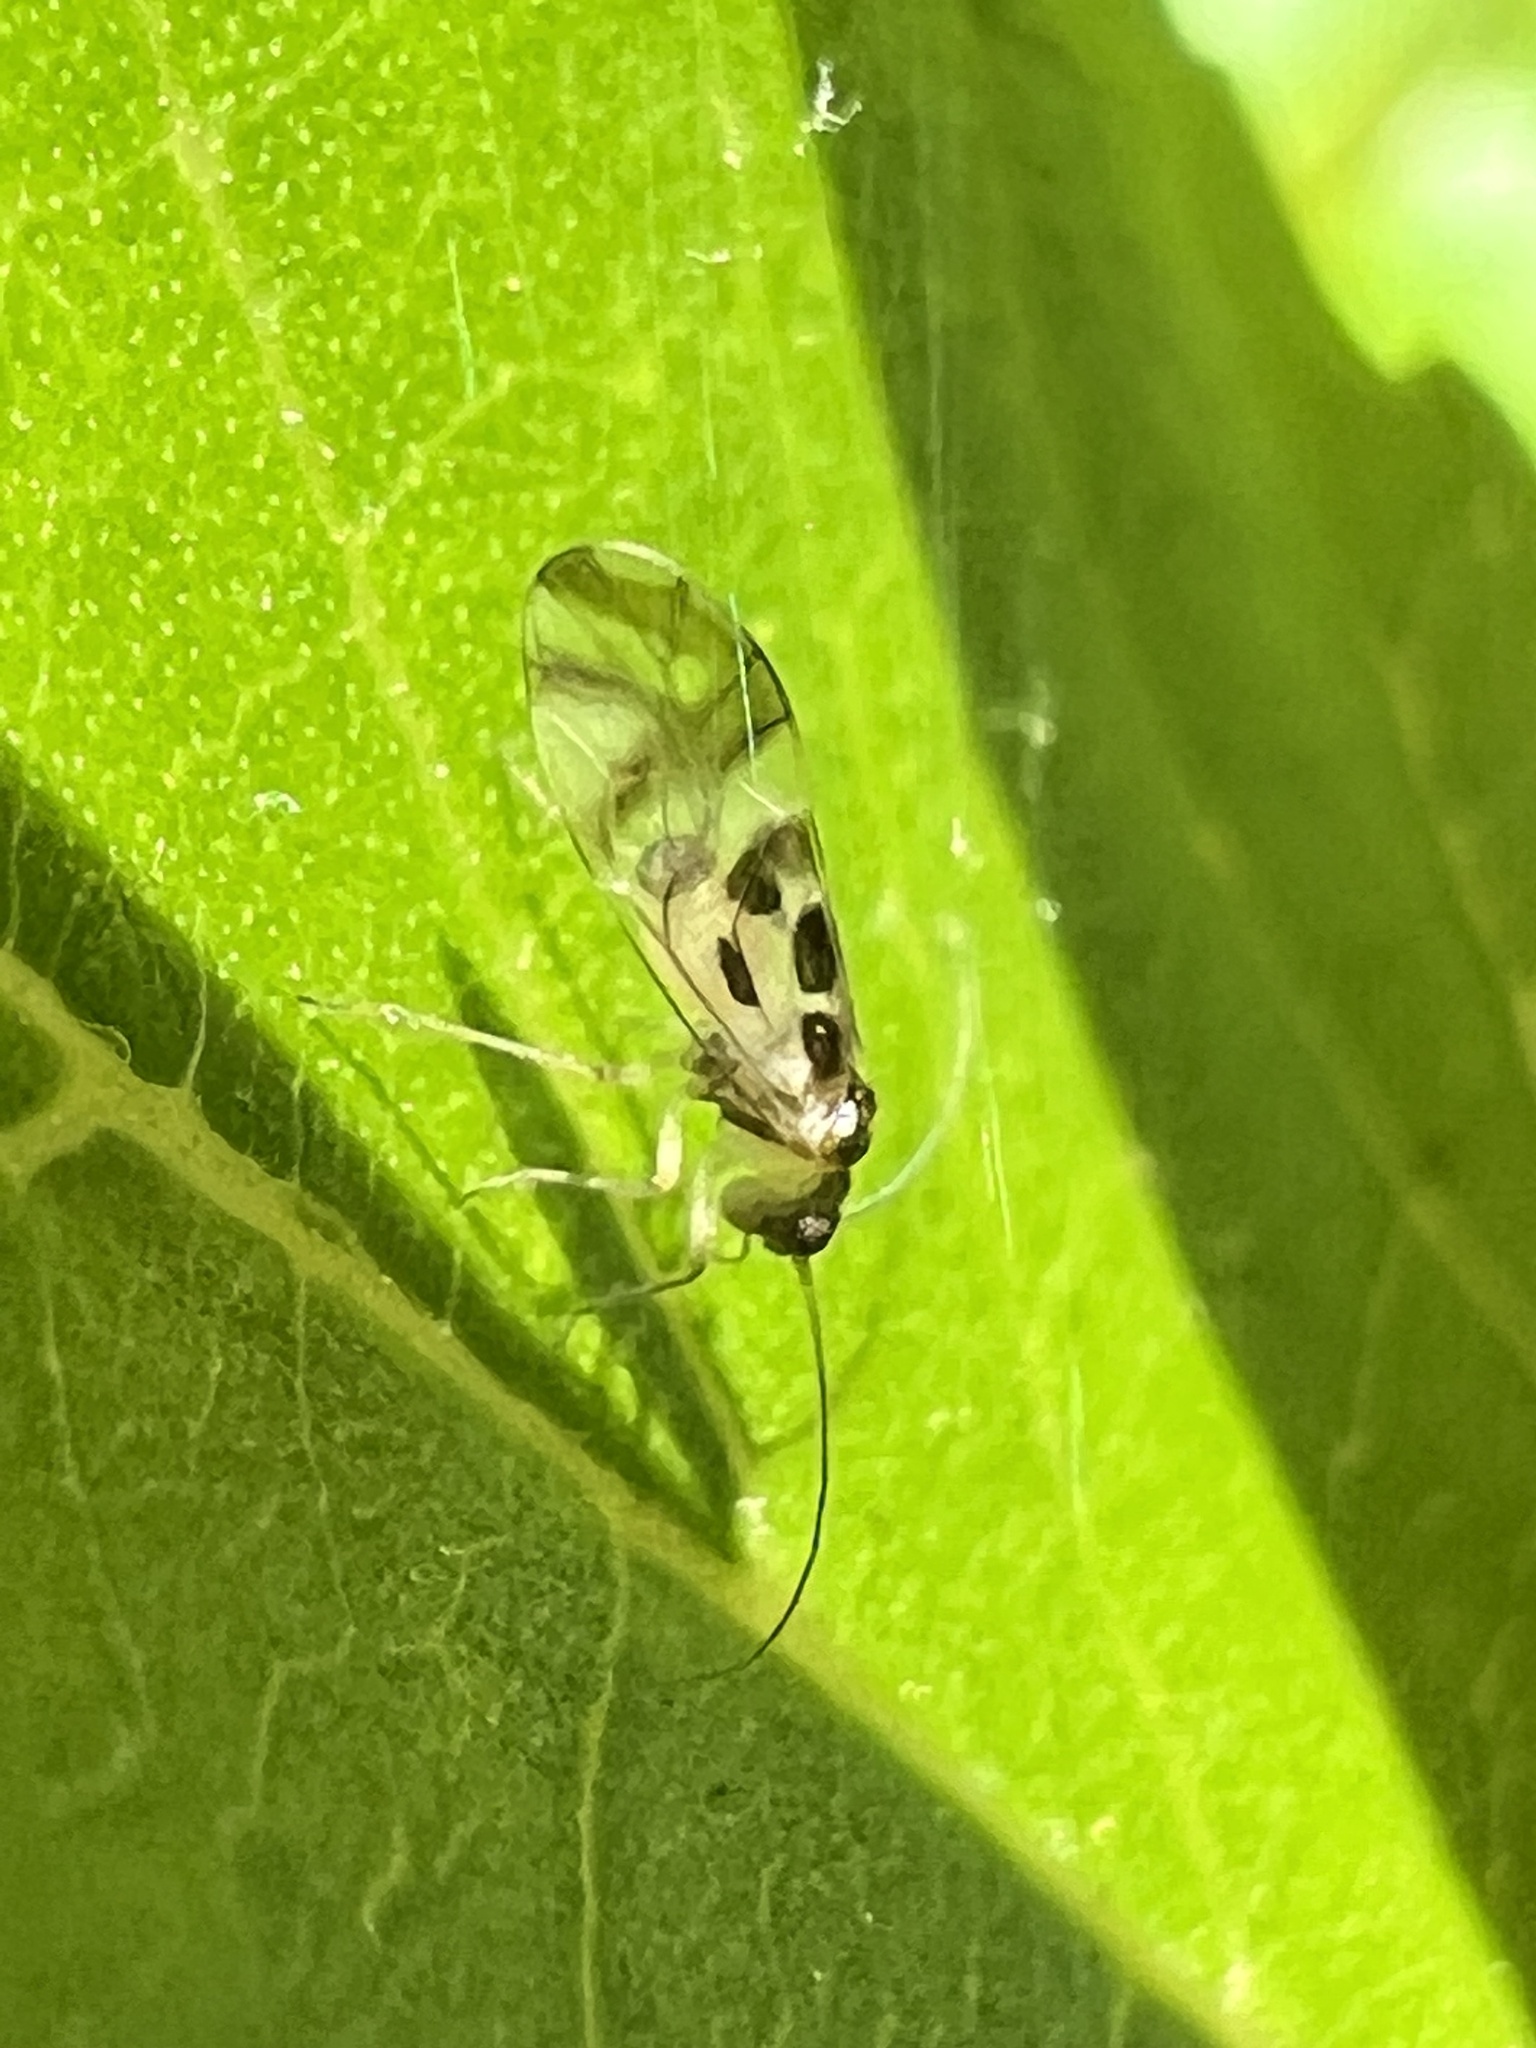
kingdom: Animalia
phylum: Arthropoda
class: Insecta
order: Psocodea
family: Stenopsocidae
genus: Graphopsocus
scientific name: Graphopsocus cruciatus
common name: Lizard bark louse
